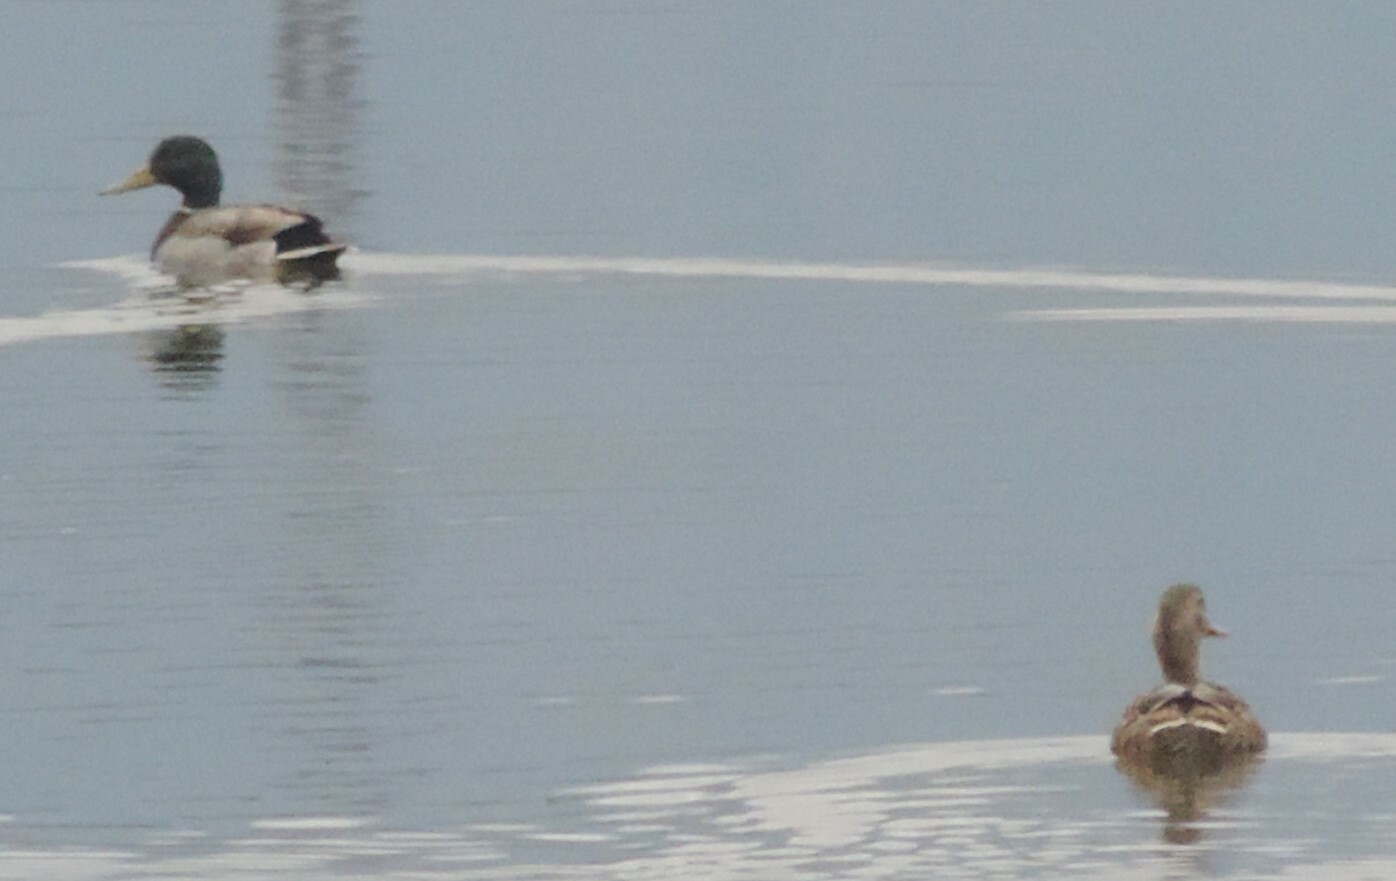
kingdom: Animalia
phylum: Chordata
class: Aves
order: Anseriformes
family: Anatidae
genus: Anas
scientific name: Anas platyrhynchos
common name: Mallard
